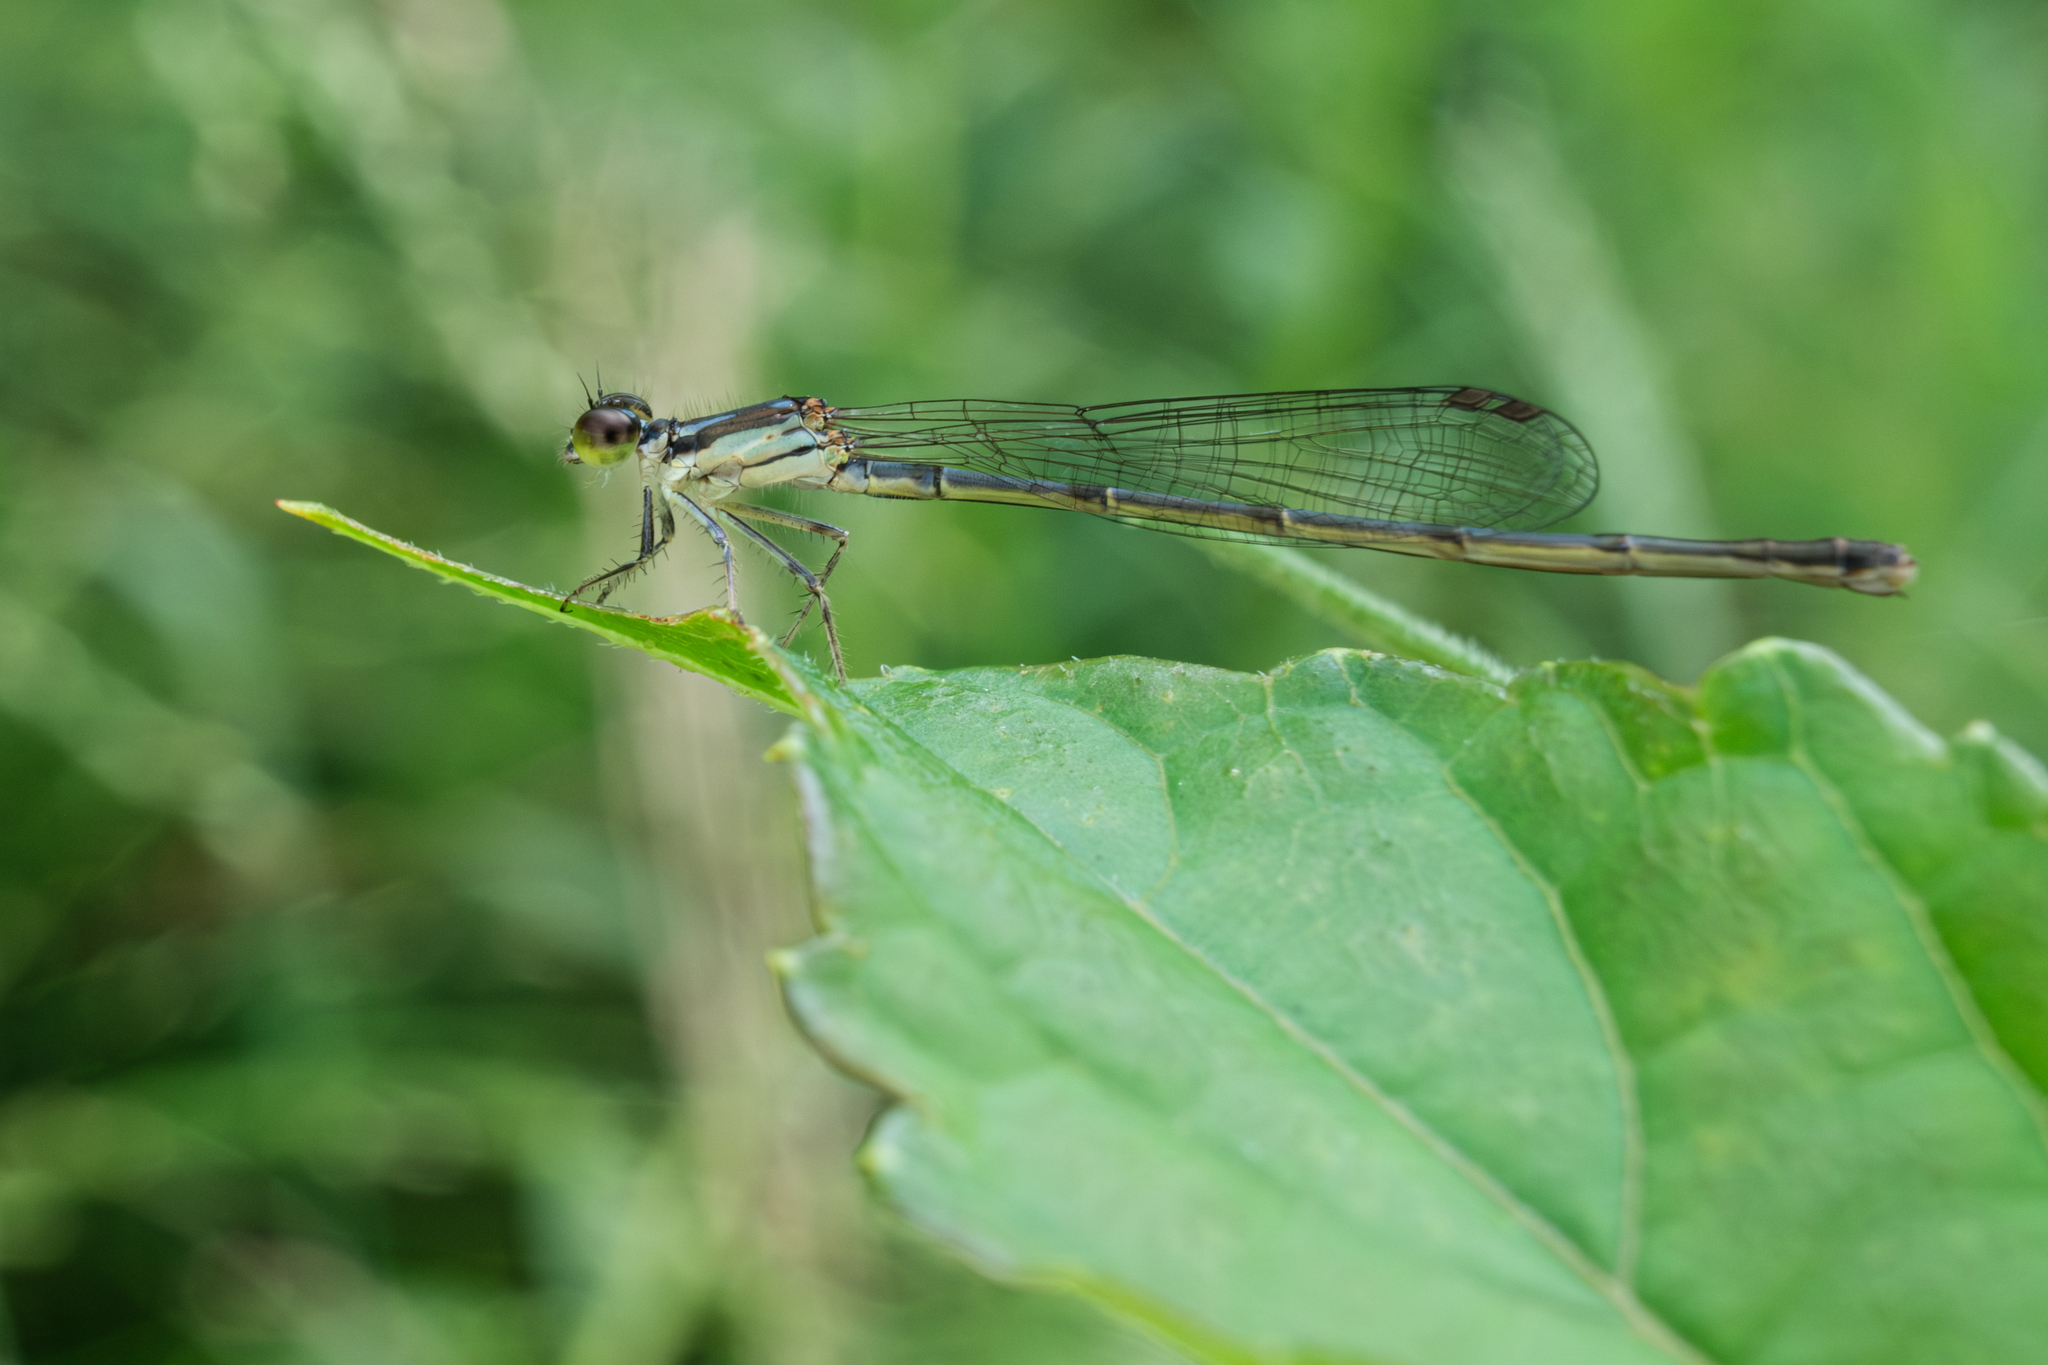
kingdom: Animalia
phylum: Arthropoda
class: Insecta
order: Odonata
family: Coenagrionidae
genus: Ischnura
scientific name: Ischnura posita
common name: Fragile forktail
